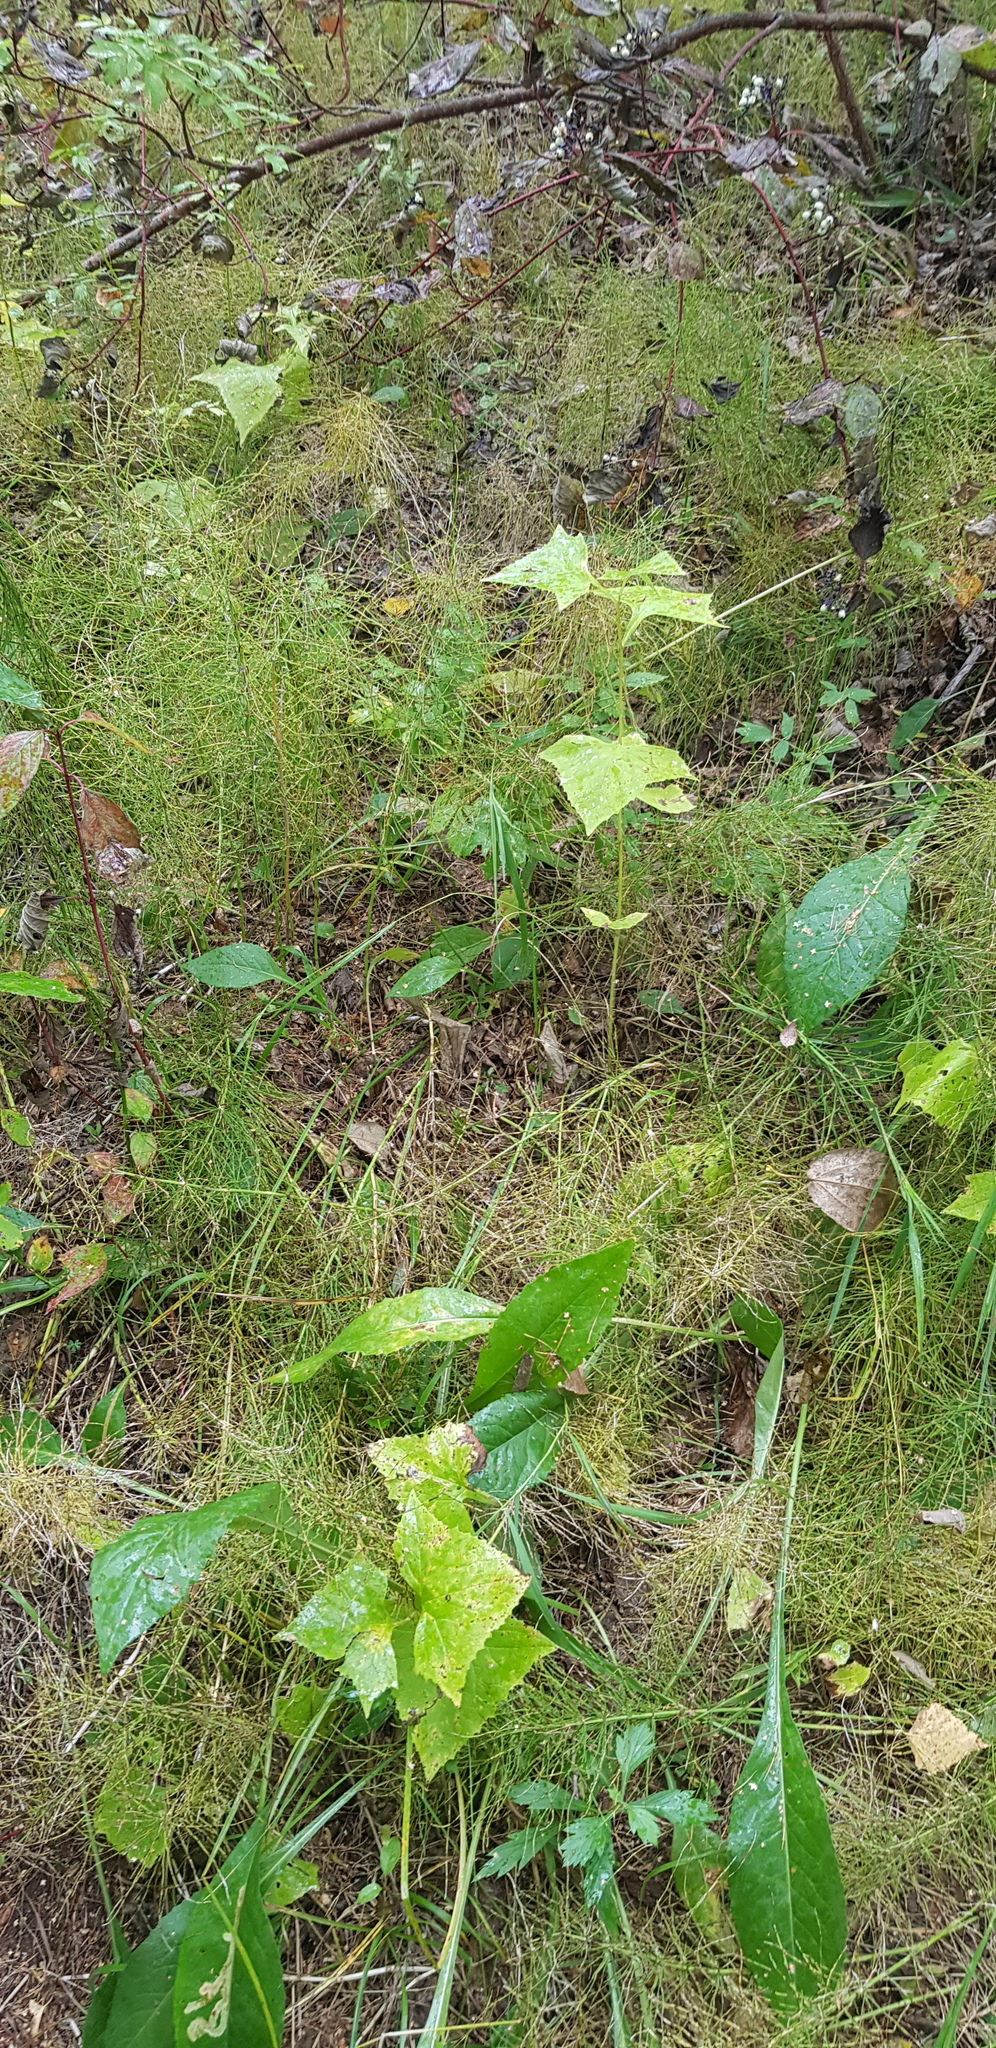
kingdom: Plantae
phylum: Tracheophyta
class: Magnoliopsida
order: Asterales
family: Asteraceae
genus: Parasenecio
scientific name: Parasenecio hastatus
